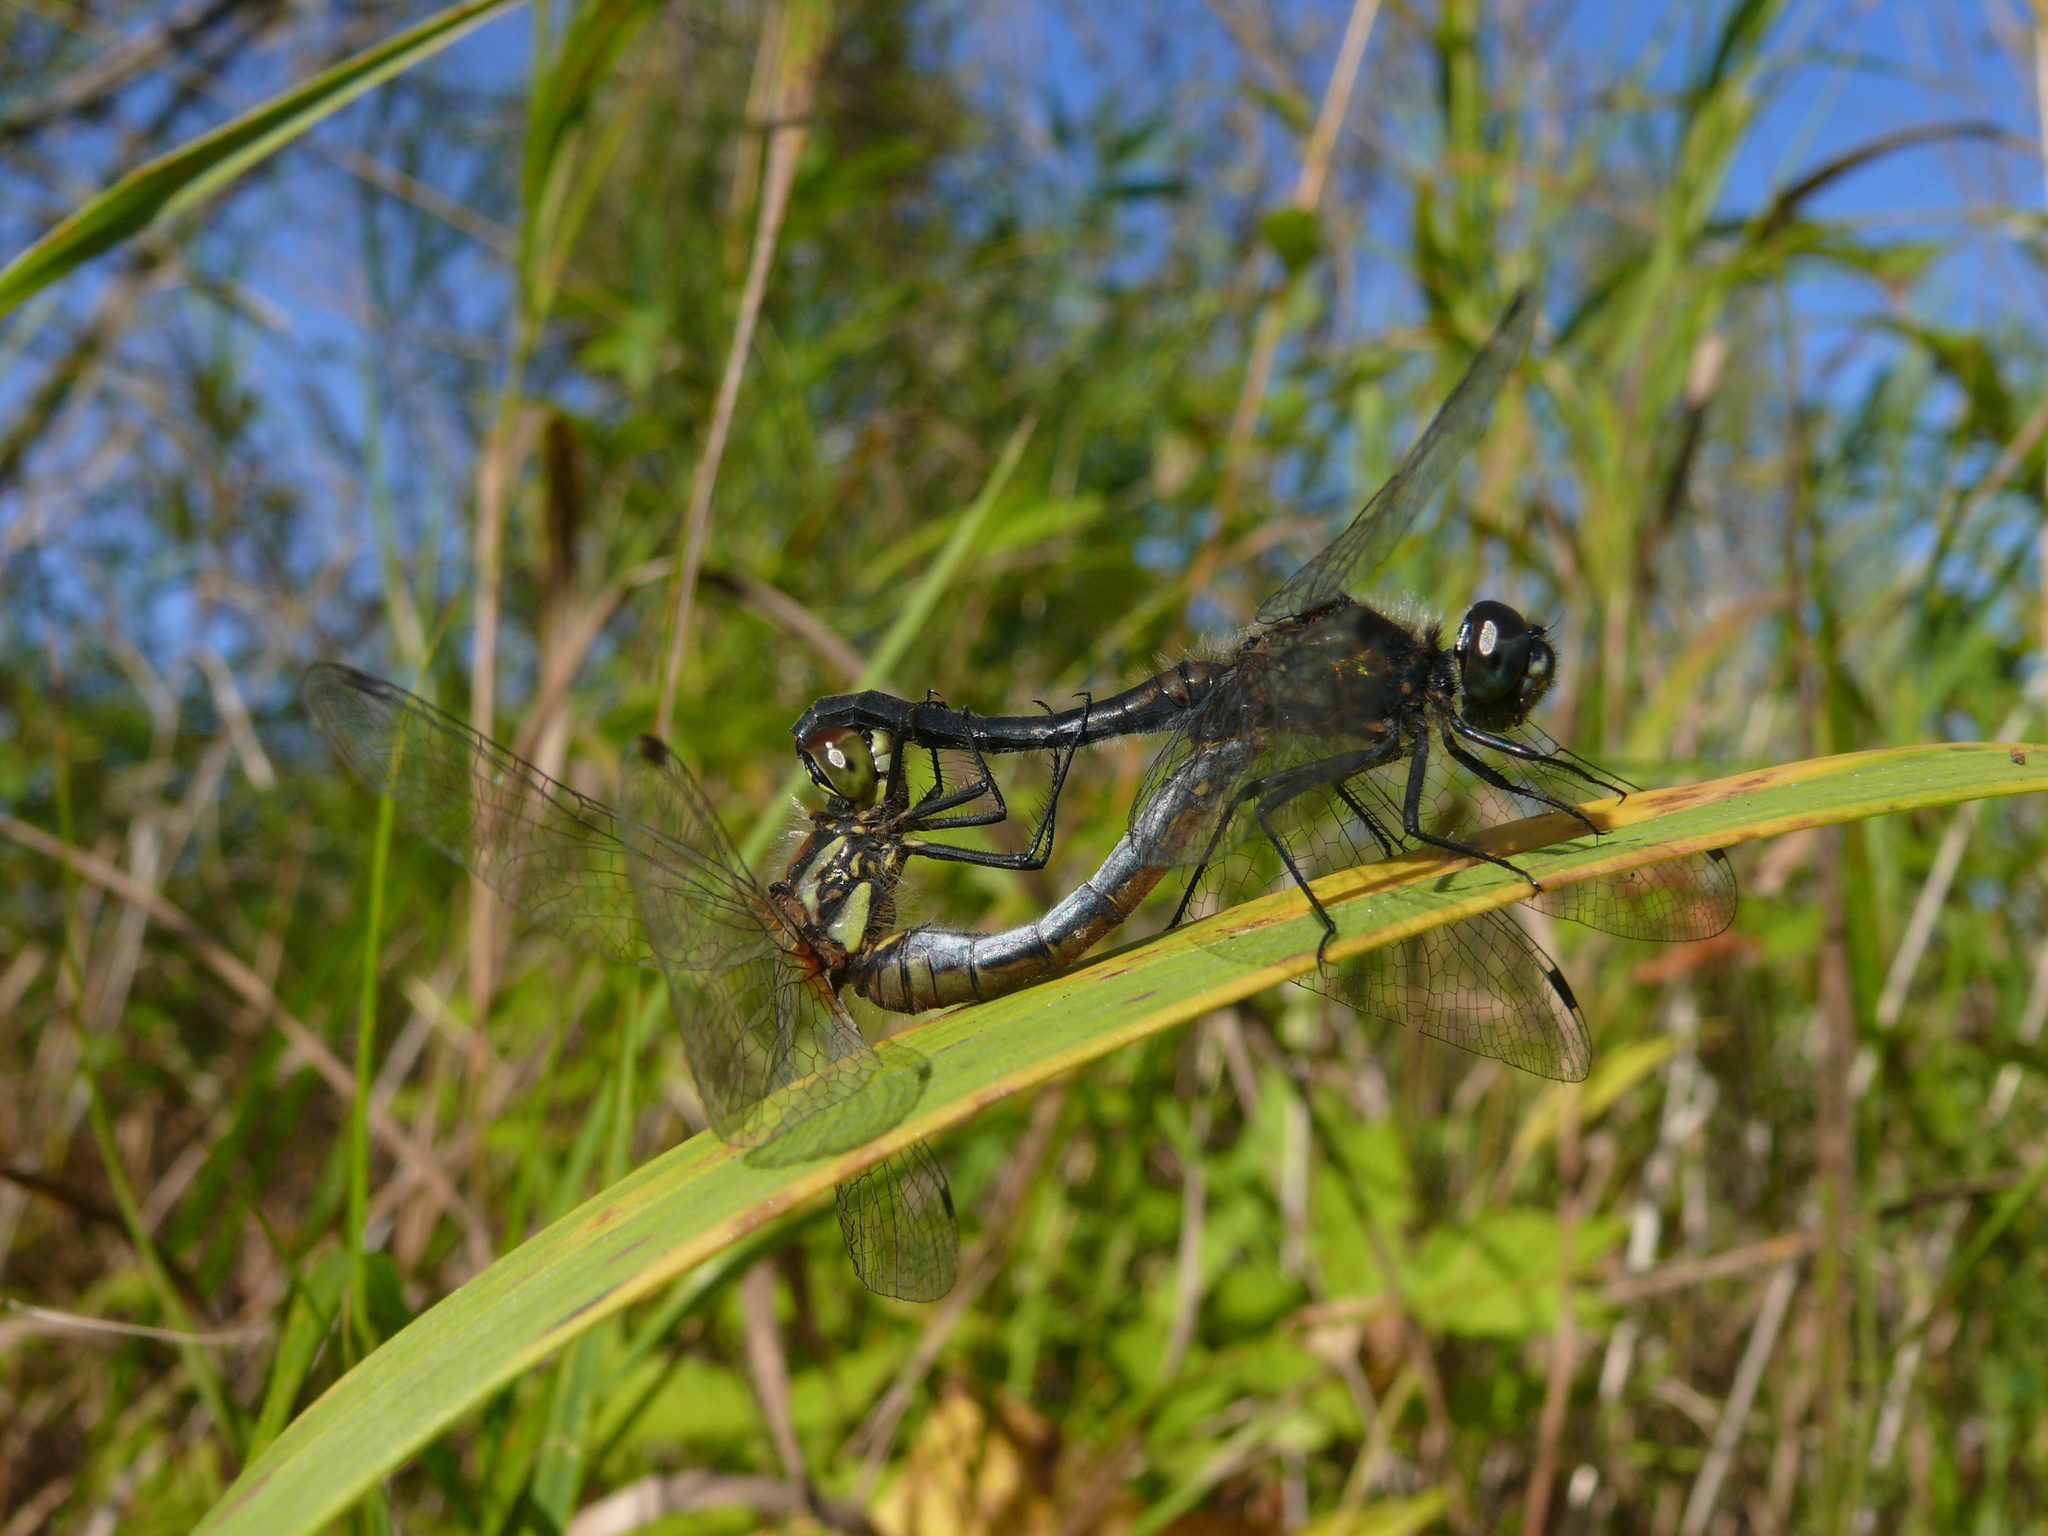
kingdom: Animalia
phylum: Arthropoda
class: Insecta
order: Odonata
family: Libellulidae
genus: Sympetrum
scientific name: Sympetrum danae
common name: Black darter
